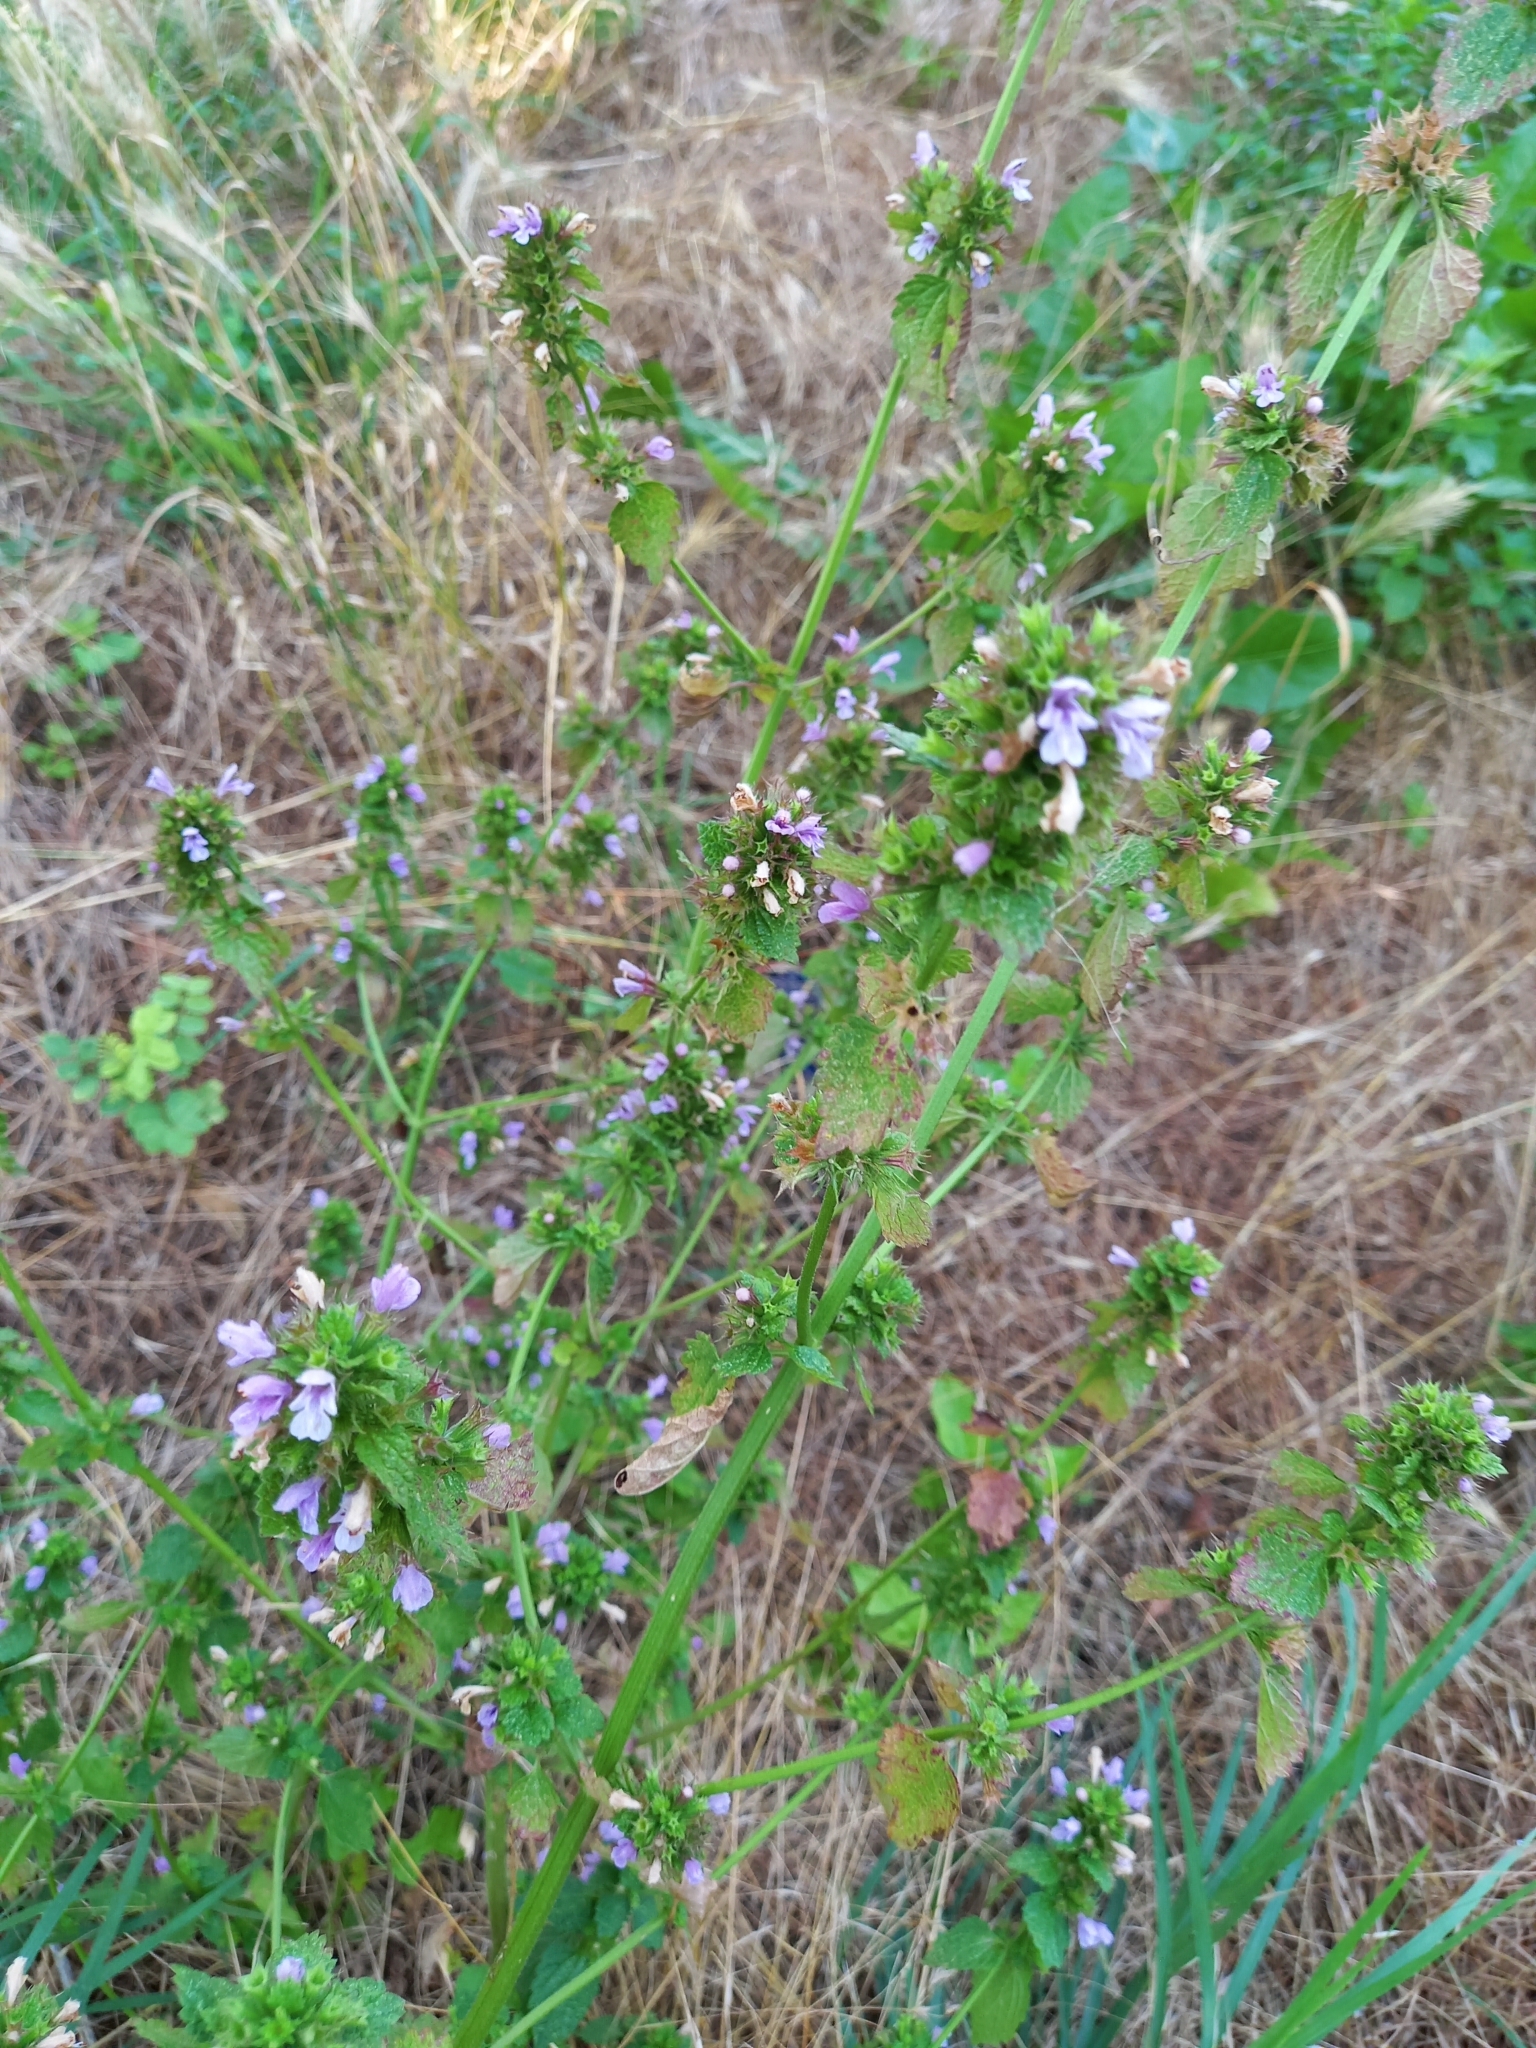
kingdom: Plantae
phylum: Tracheophyta
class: Magnoliopsida
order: Lamiales
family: Lamiaceae
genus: Ballota
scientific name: Ballota nigra
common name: Black horehound
